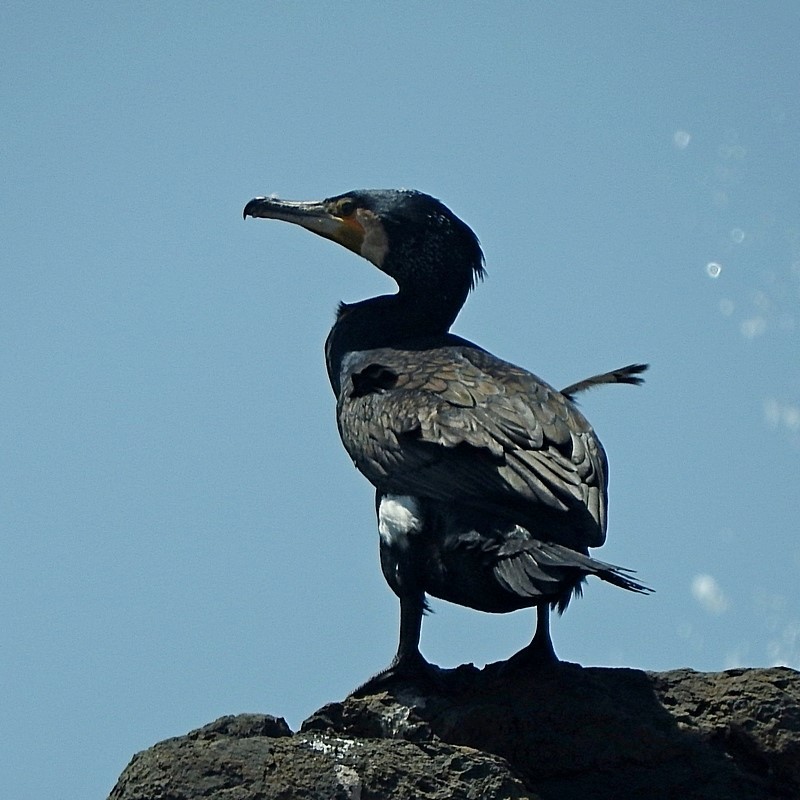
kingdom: Animalia
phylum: Chordata
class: Aves
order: Suliformes
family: Phalacrocoracidae
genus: Phalacrocorax
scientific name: Phalacrocorax carbo
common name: Great cormorant
